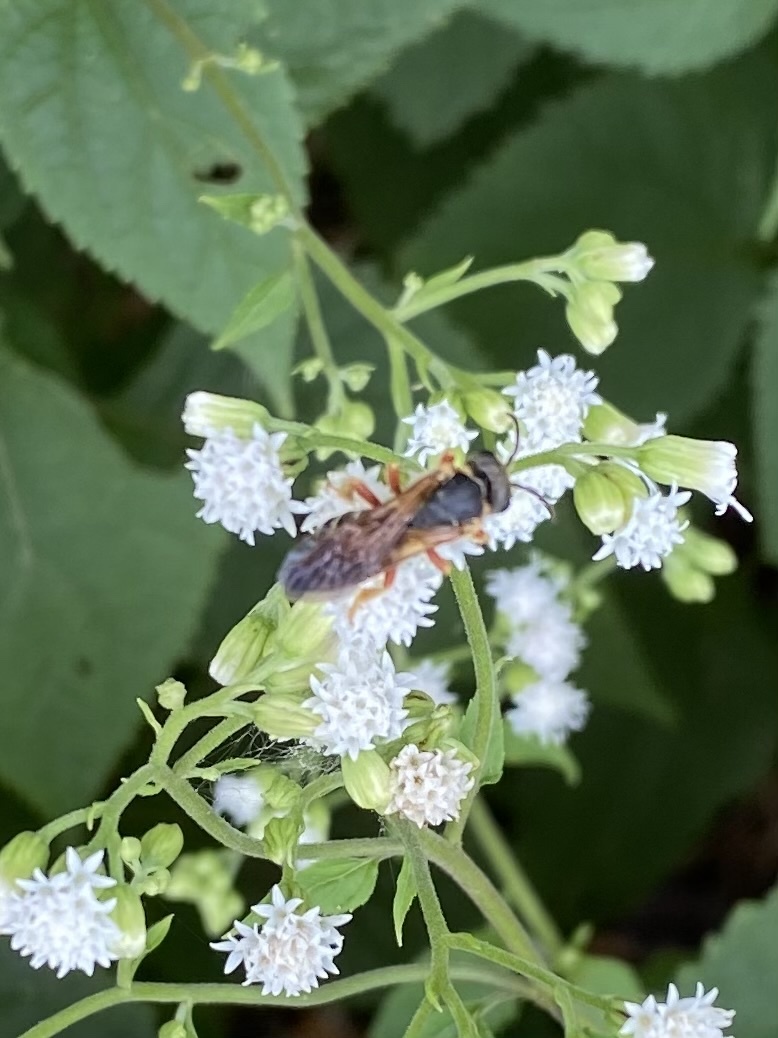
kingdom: Animalia
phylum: Arthropoda
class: Insecta
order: Hymenoptera
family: Halictidae
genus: Halictus
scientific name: Halictus parallelus
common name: Parallel-striped sweat bee
